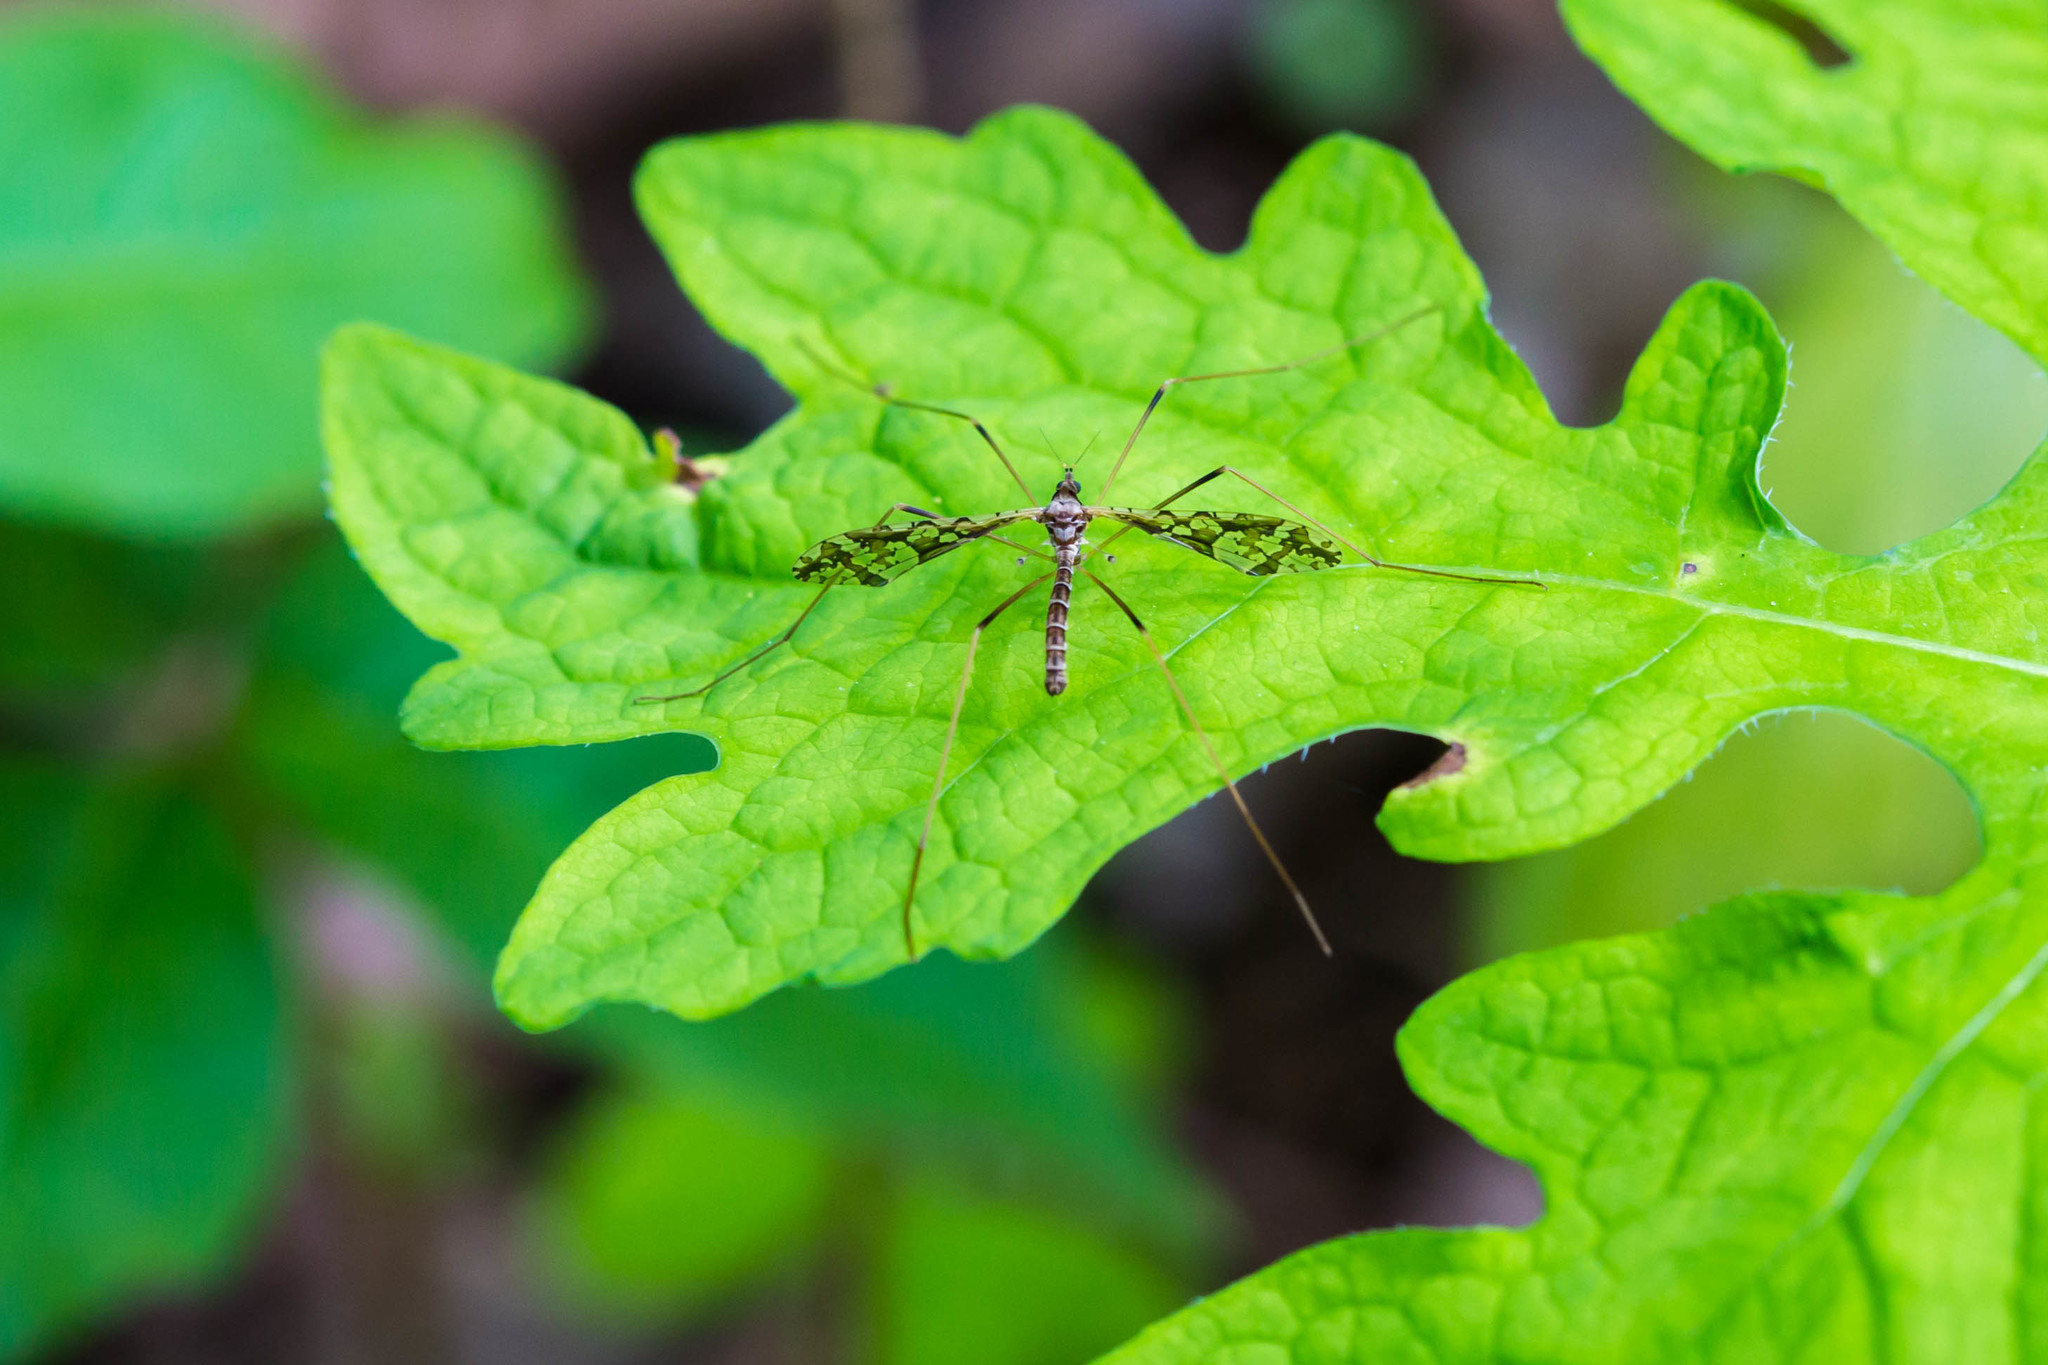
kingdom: Animalia
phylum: Arthropoda
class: Insecta
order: Diptera
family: Limoniidae
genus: Epiphragma
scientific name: Epiphragma solatrix
